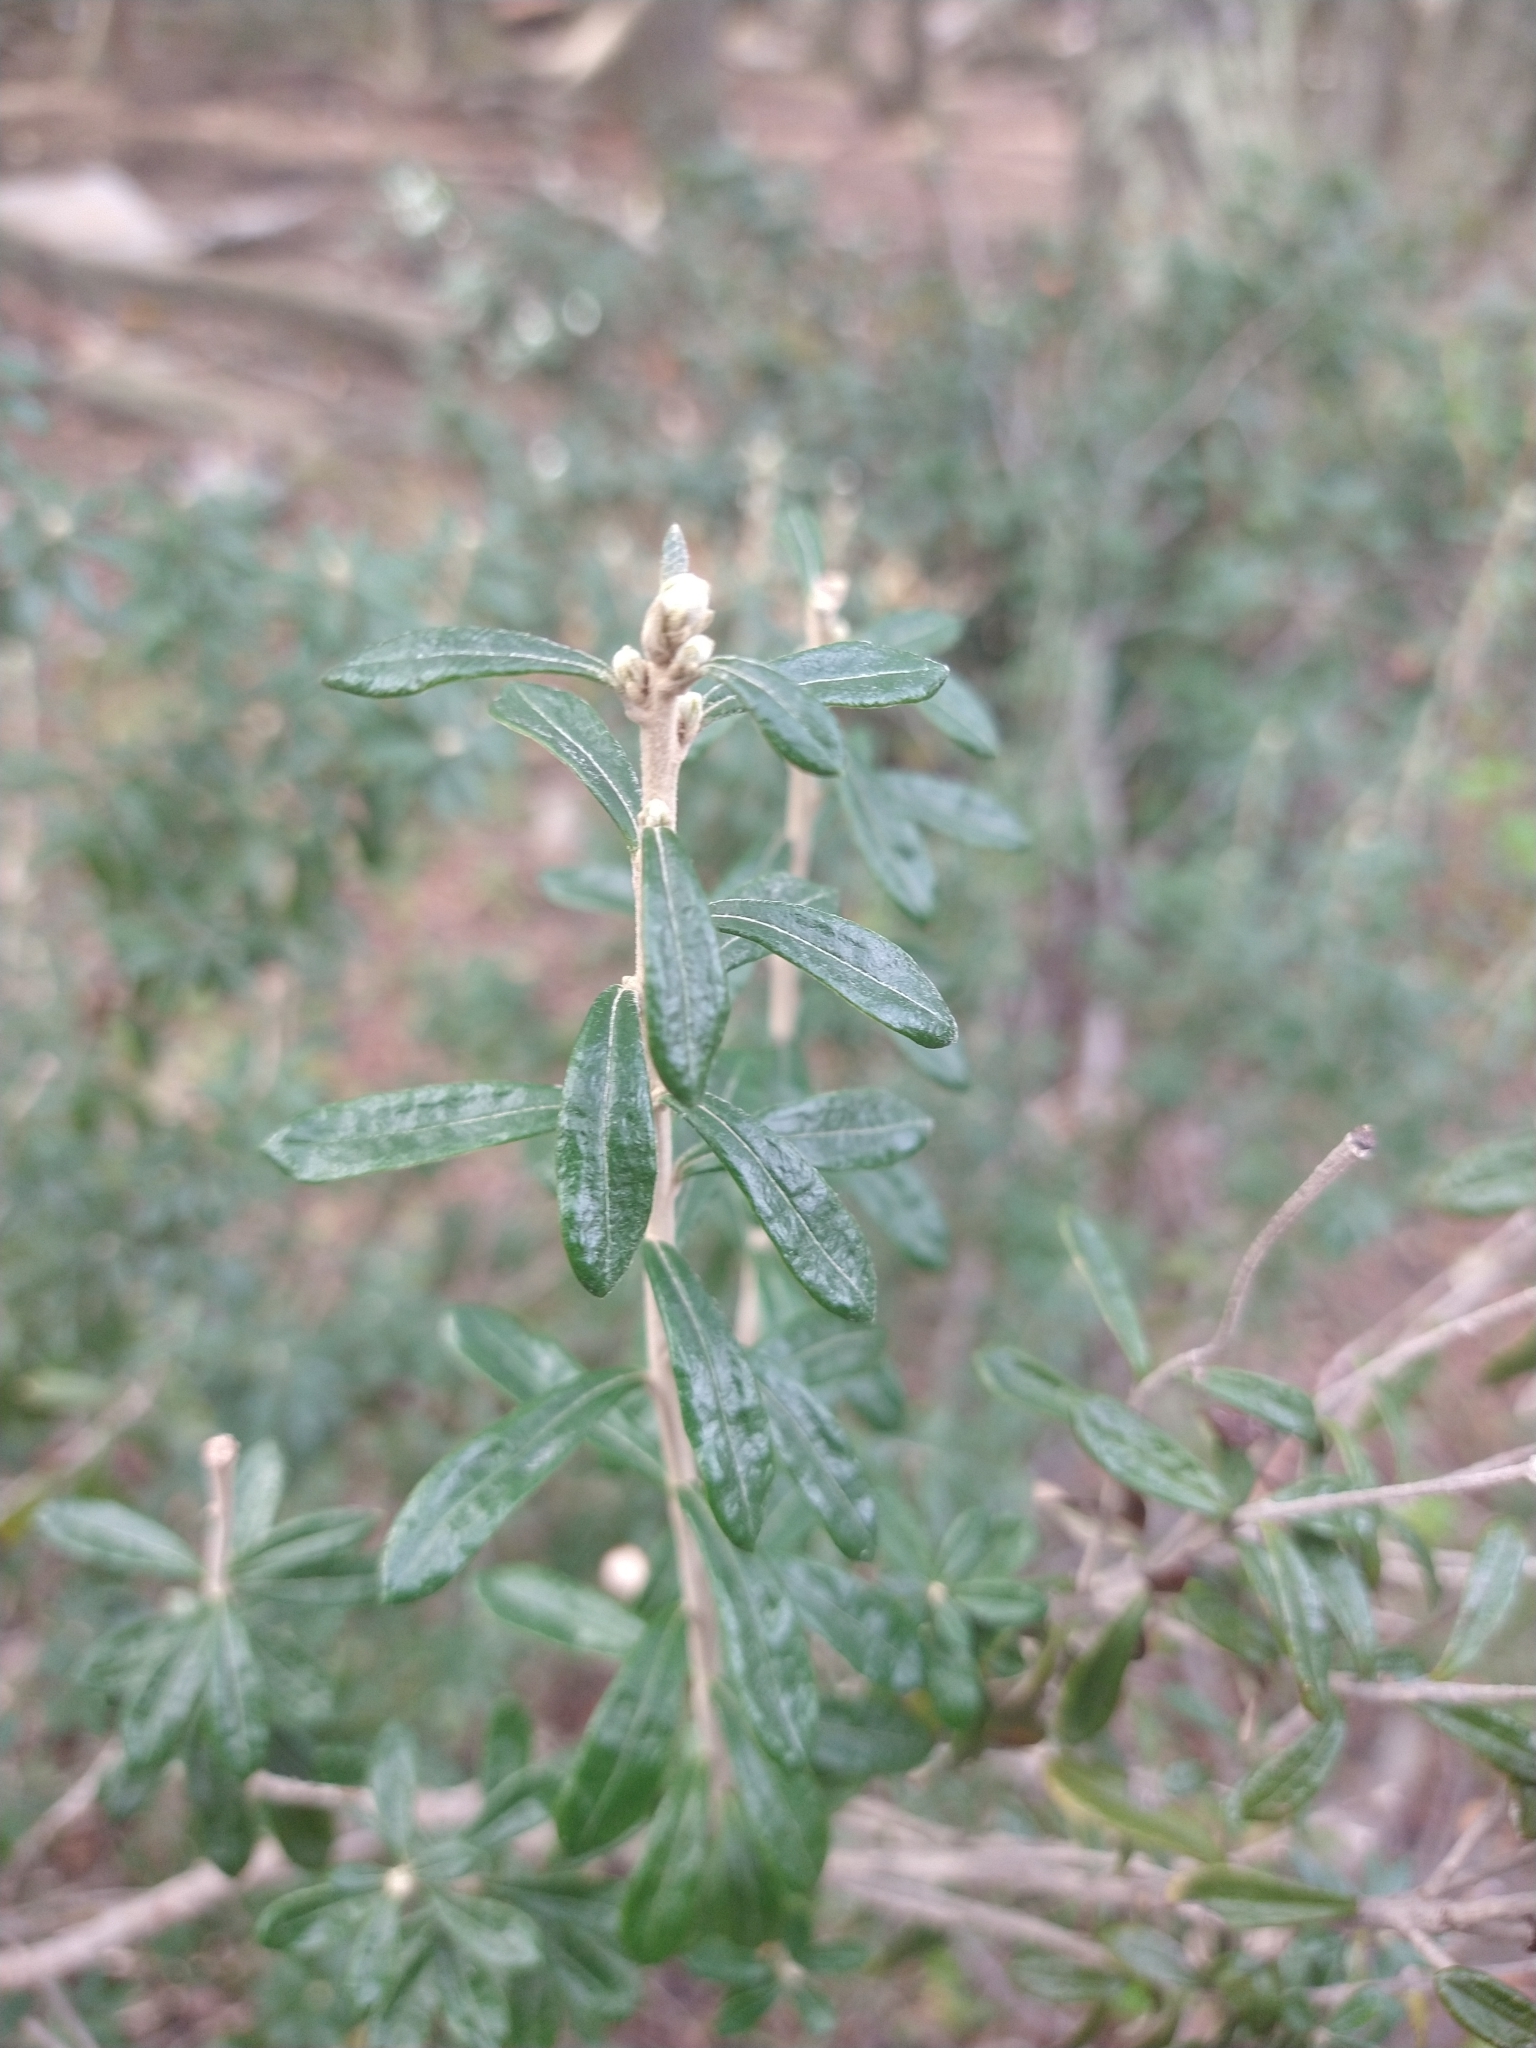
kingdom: Plantae
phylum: Tracheophyta
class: Magnoliopsida
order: Asterales
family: Asteraceae
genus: Chiliotrichum
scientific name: Chiliotrichum diffusum
